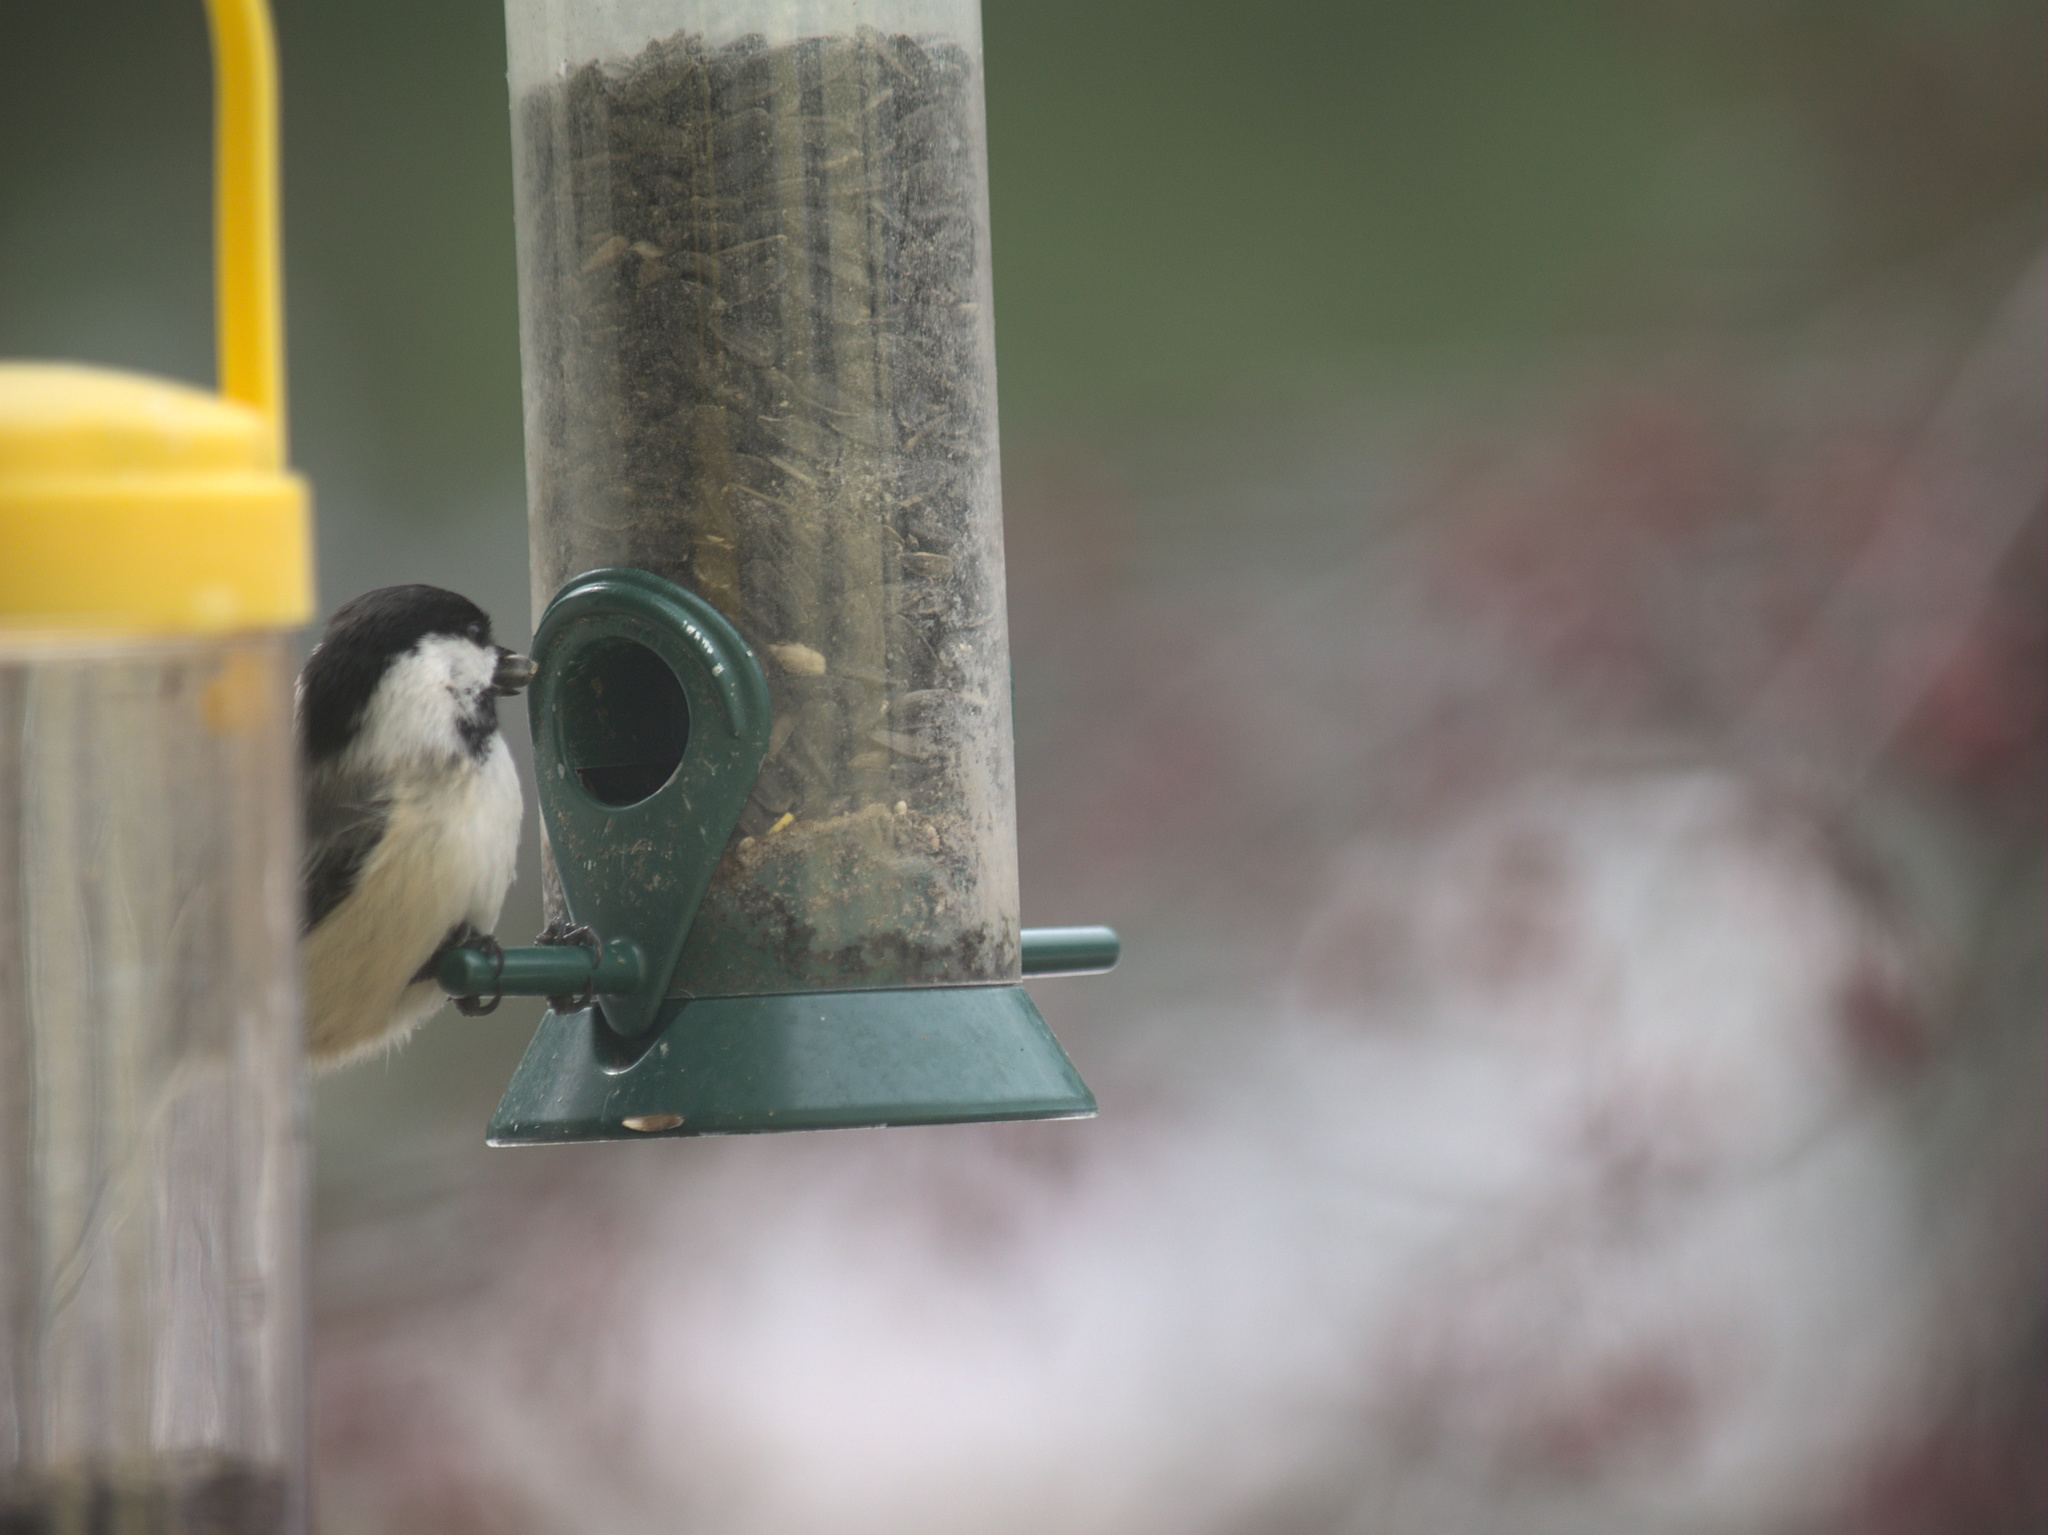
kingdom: Animalia
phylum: Chordata
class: Aves
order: Passeriformes
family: Paridae
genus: Poecile
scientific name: Poecile atricapillus
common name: Black-capped chickadee
